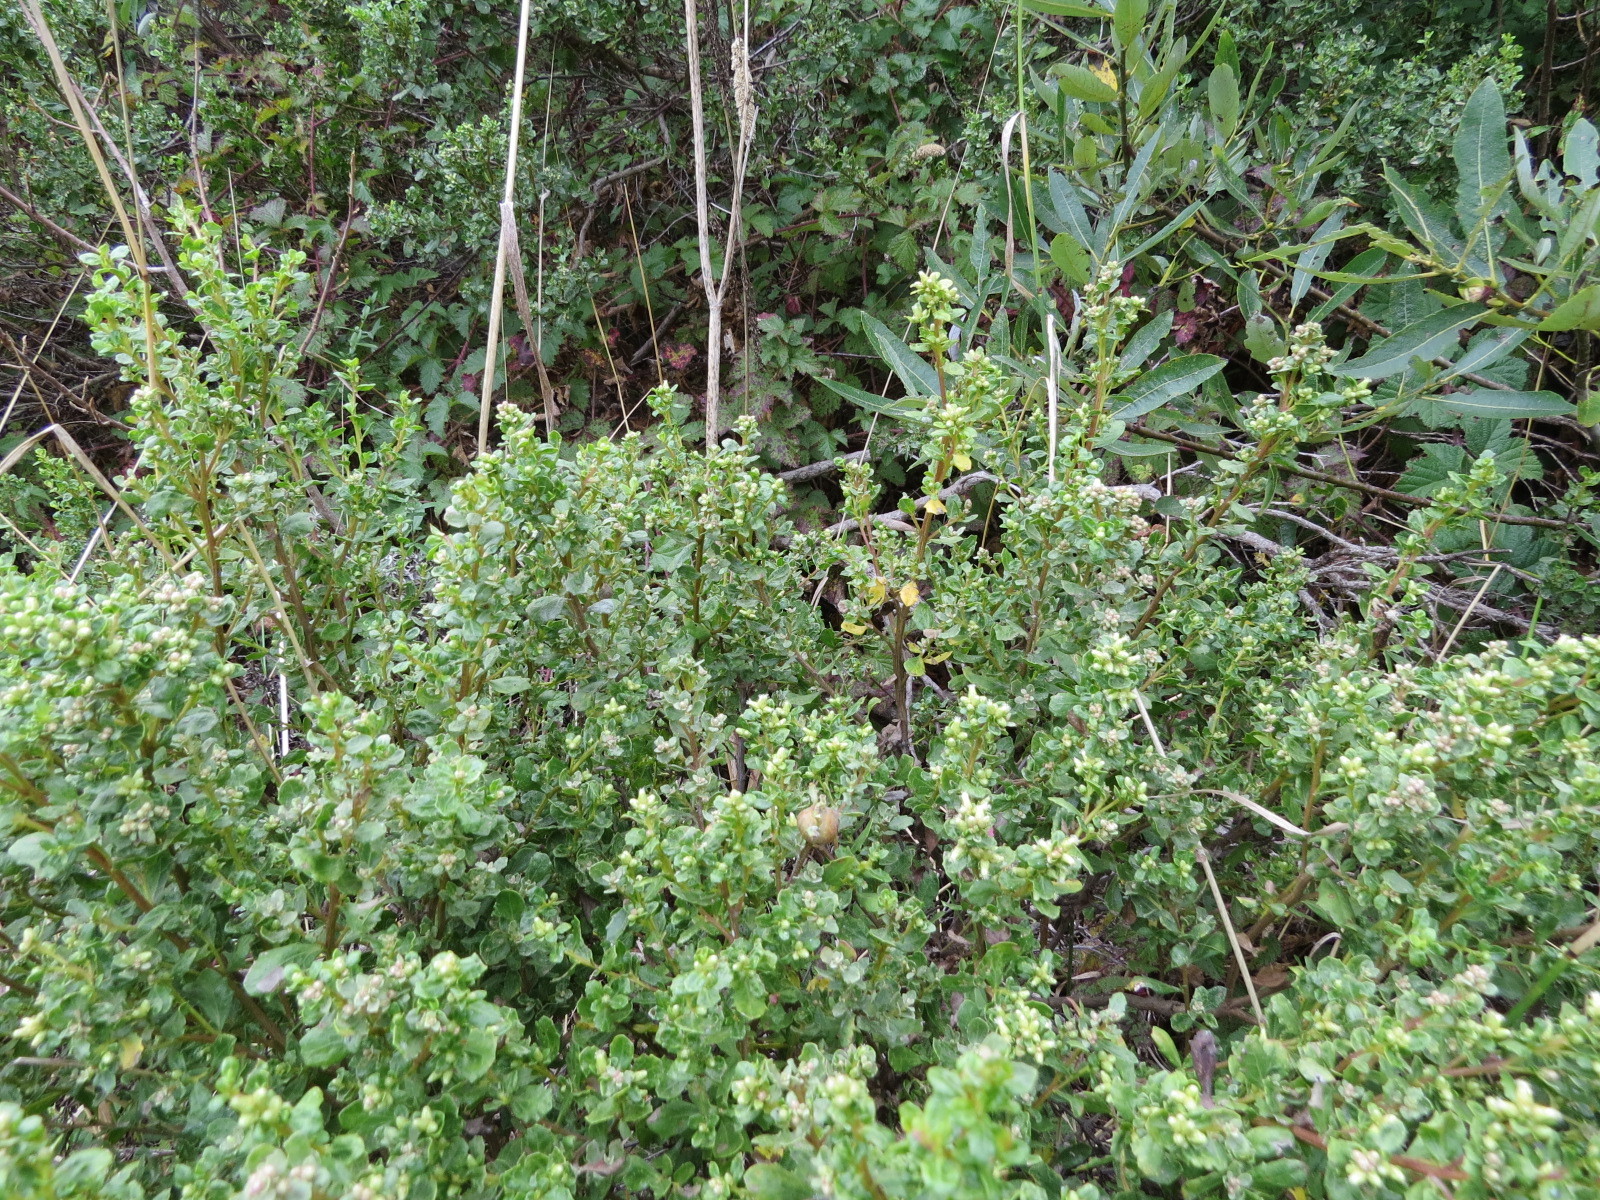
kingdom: Animalia
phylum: Arthropoda
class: Insecta
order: Lepidoptera
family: Gelechiidae
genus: Gnorimoschema
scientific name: Gnorimoschema baccharisella
